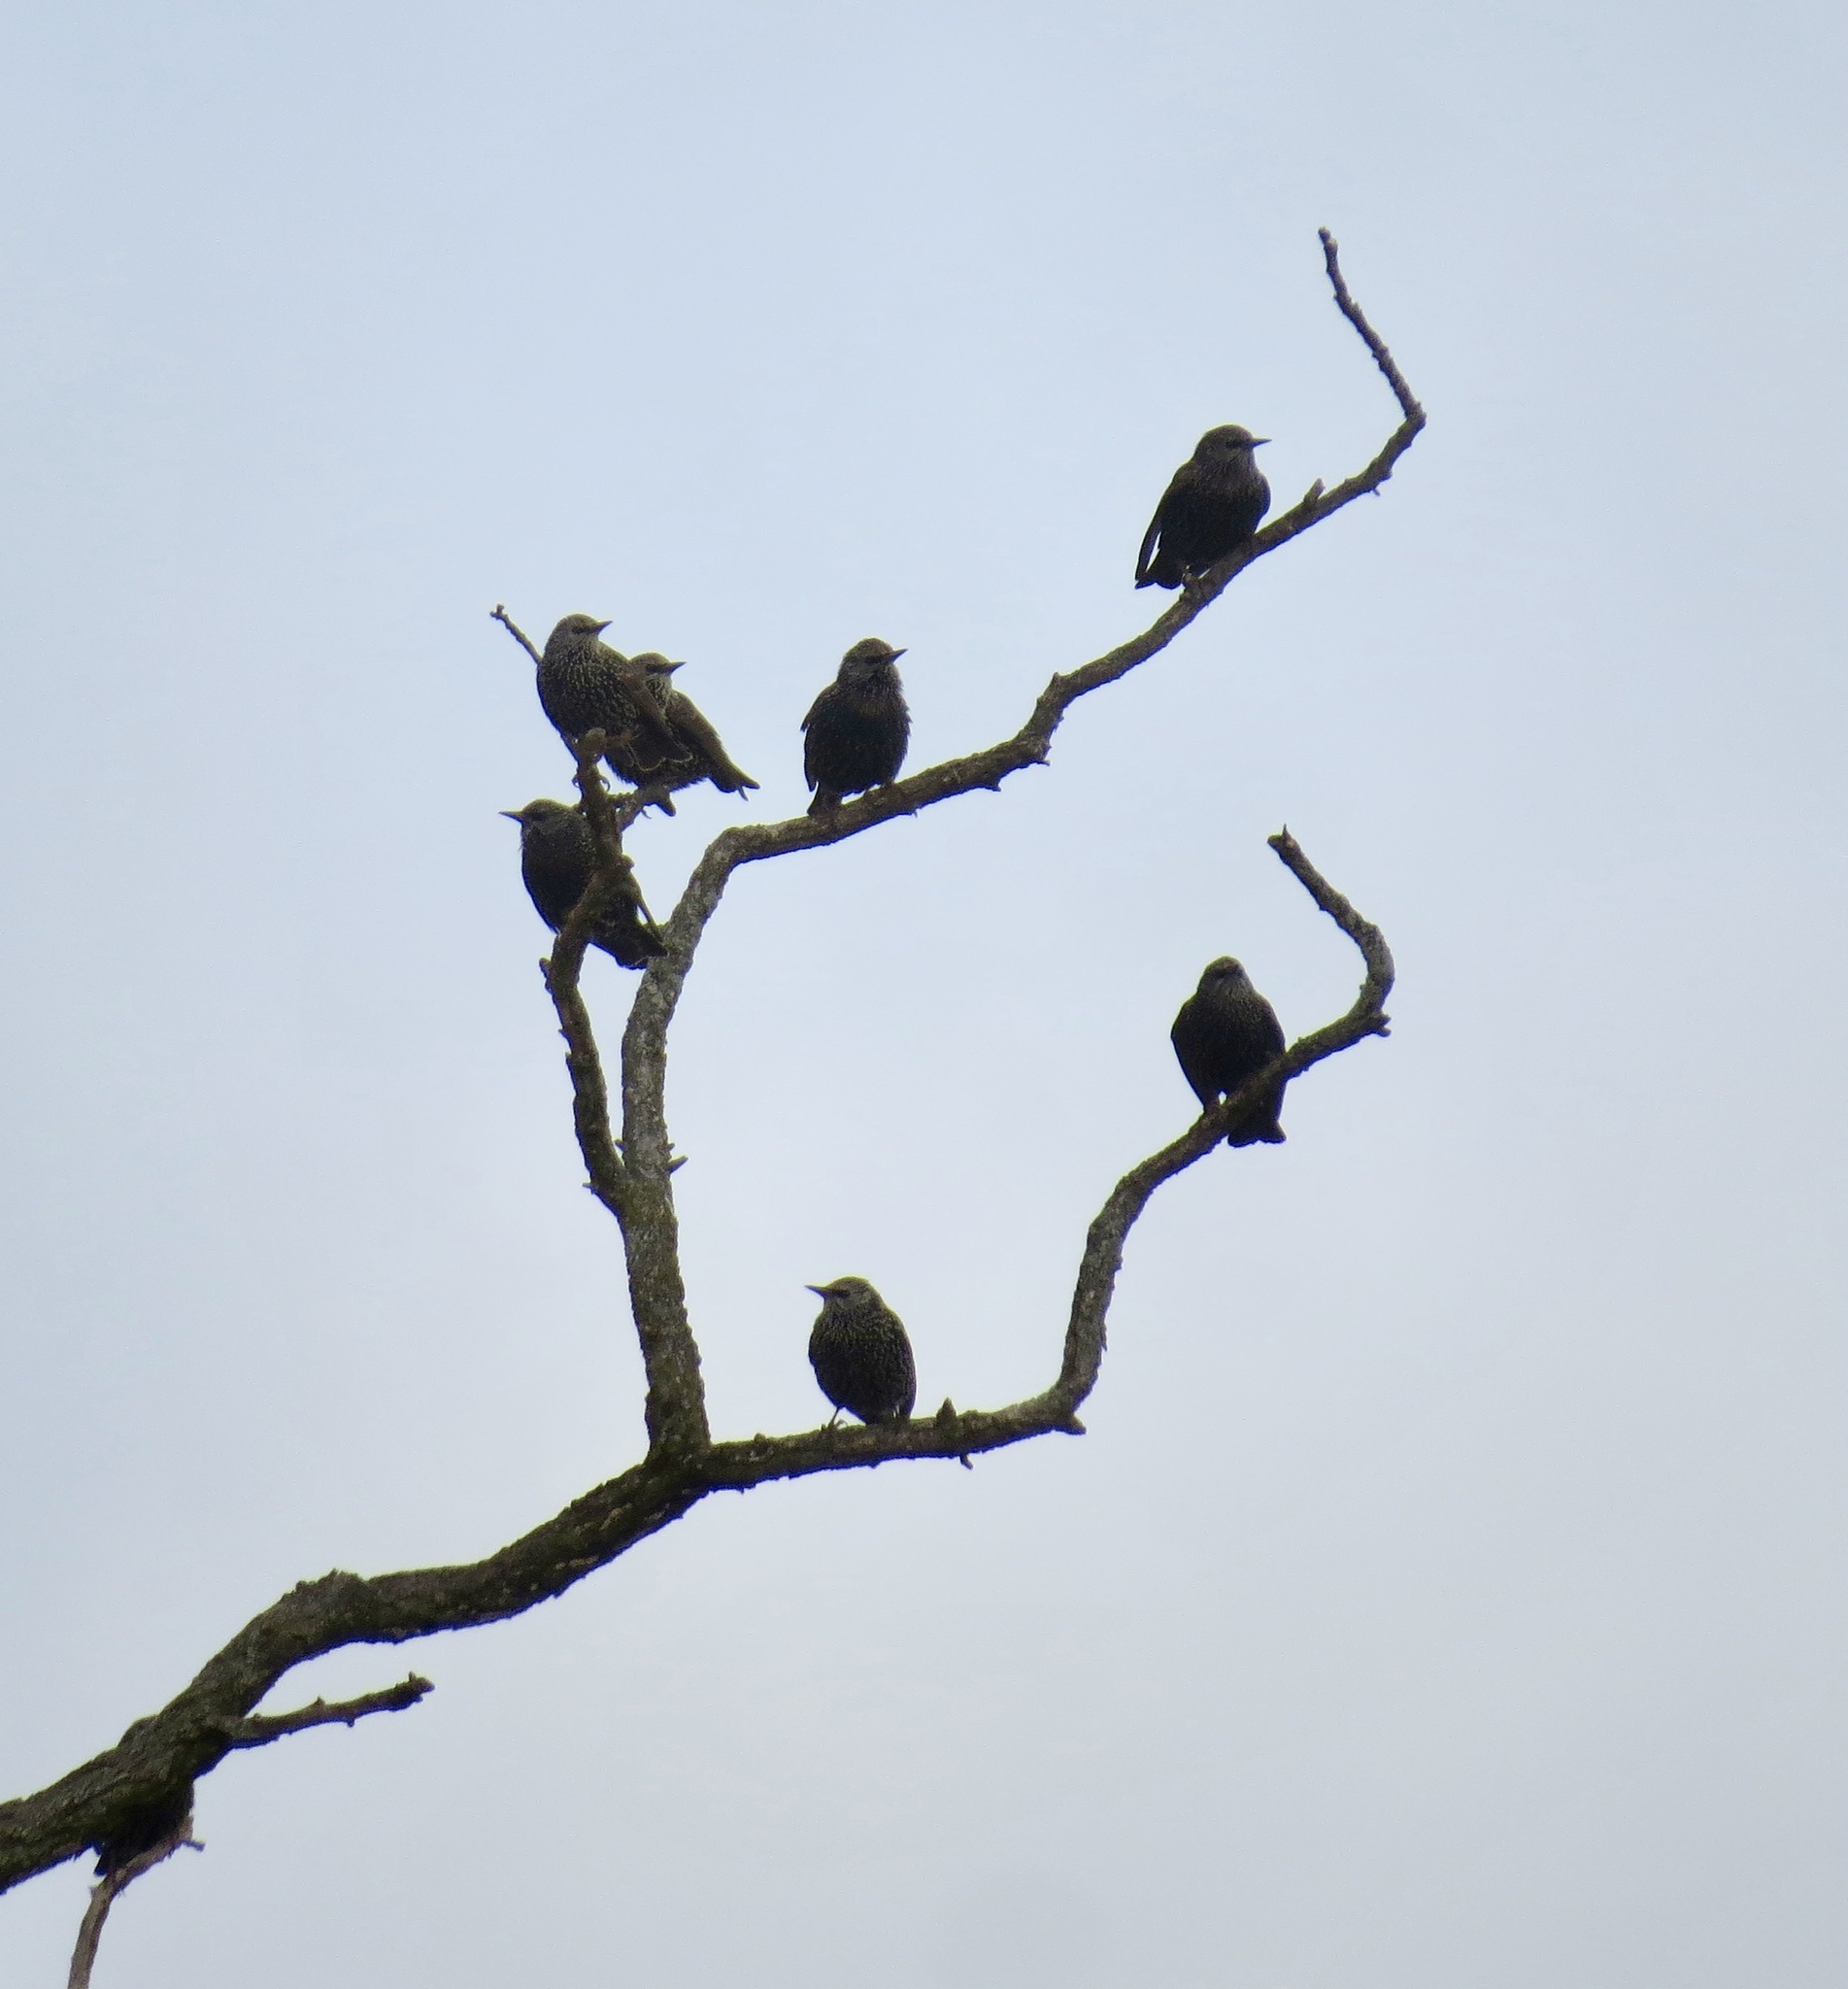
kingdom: Animalia
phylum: Chordata
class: Aves
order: Passeriformes
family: Sturnidae
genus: Sturnus
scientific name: Sturnus vulgaris
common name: Common starling
